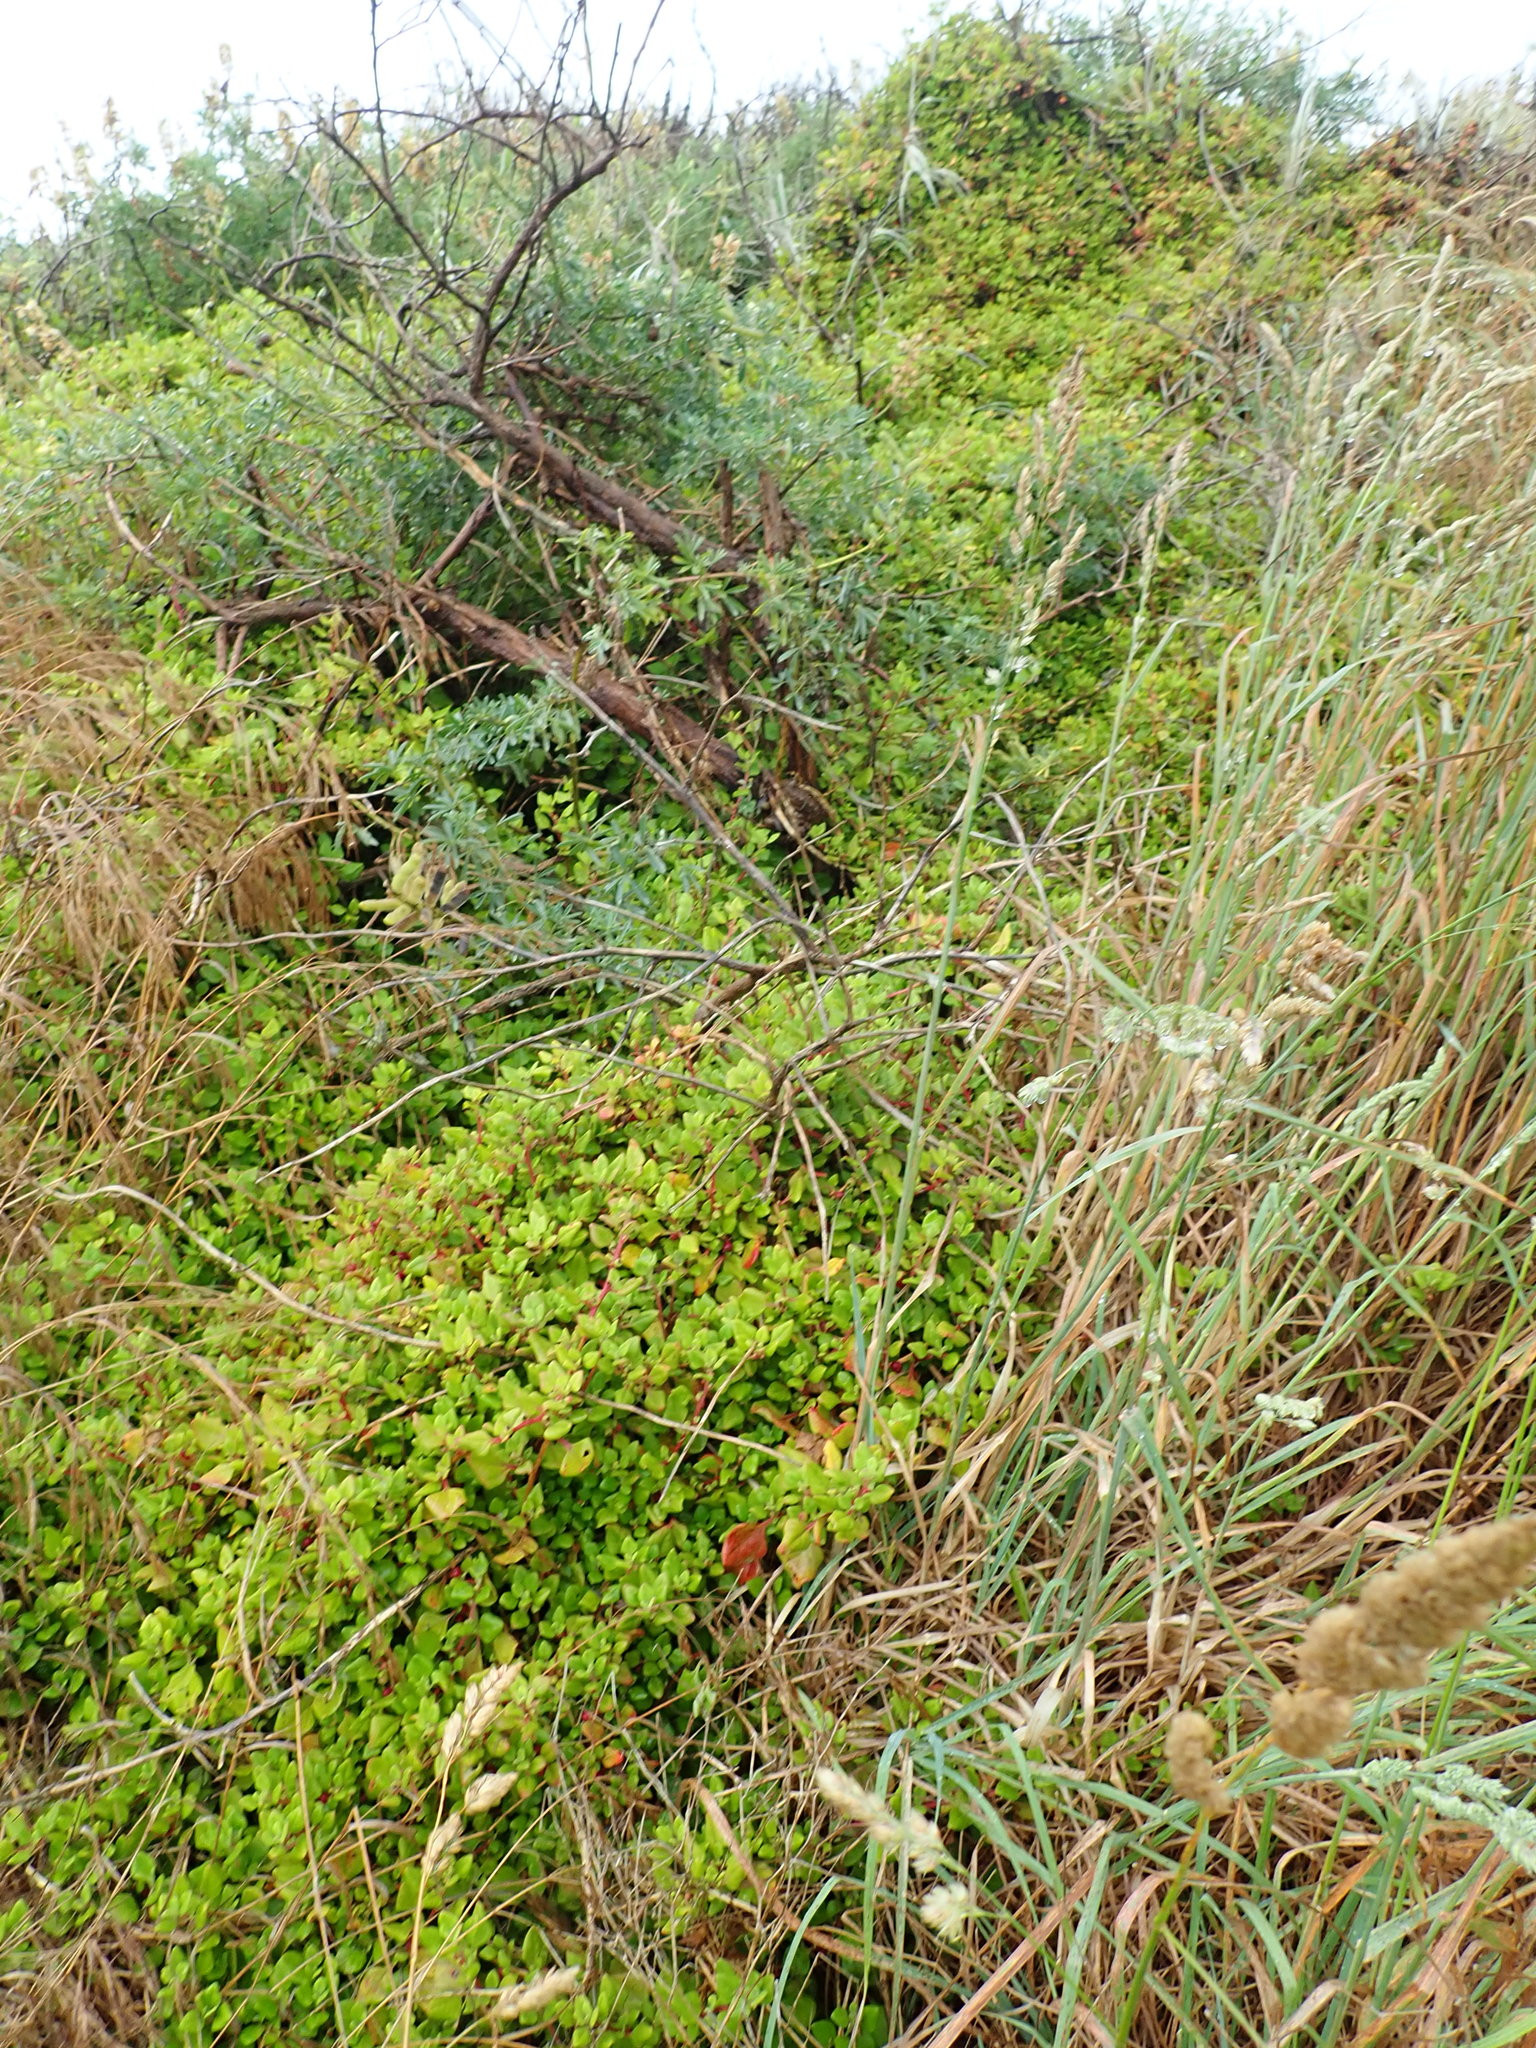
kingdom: Plantae
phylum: Tracheophyta
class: Magnoliopsida
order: Caryophyllales
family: Aizoaceae
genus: Tetragonia
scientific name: Tetragonia implexicoma
